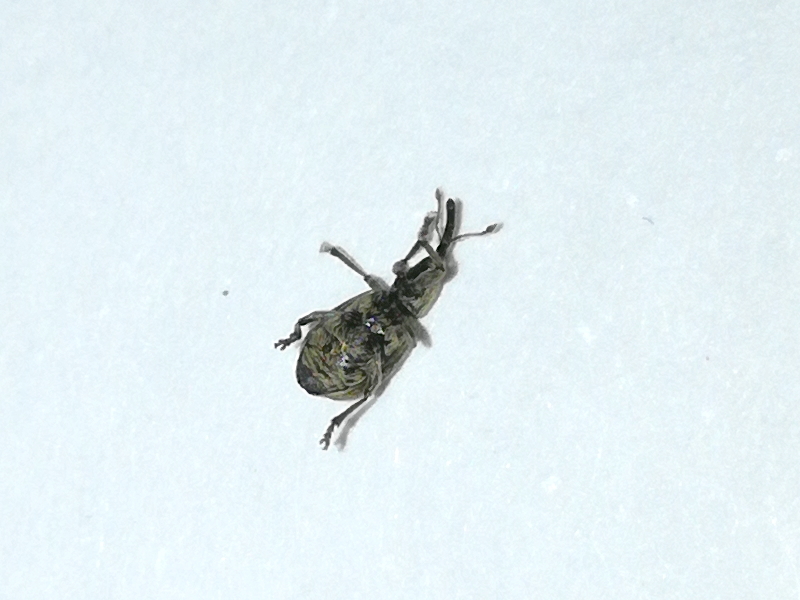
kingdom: Animalia
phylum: Arthropoda
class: Insecta
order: Coleoptera
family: Apionidae
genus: Trichopterapion
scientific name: Trichopterapion holosericeum
